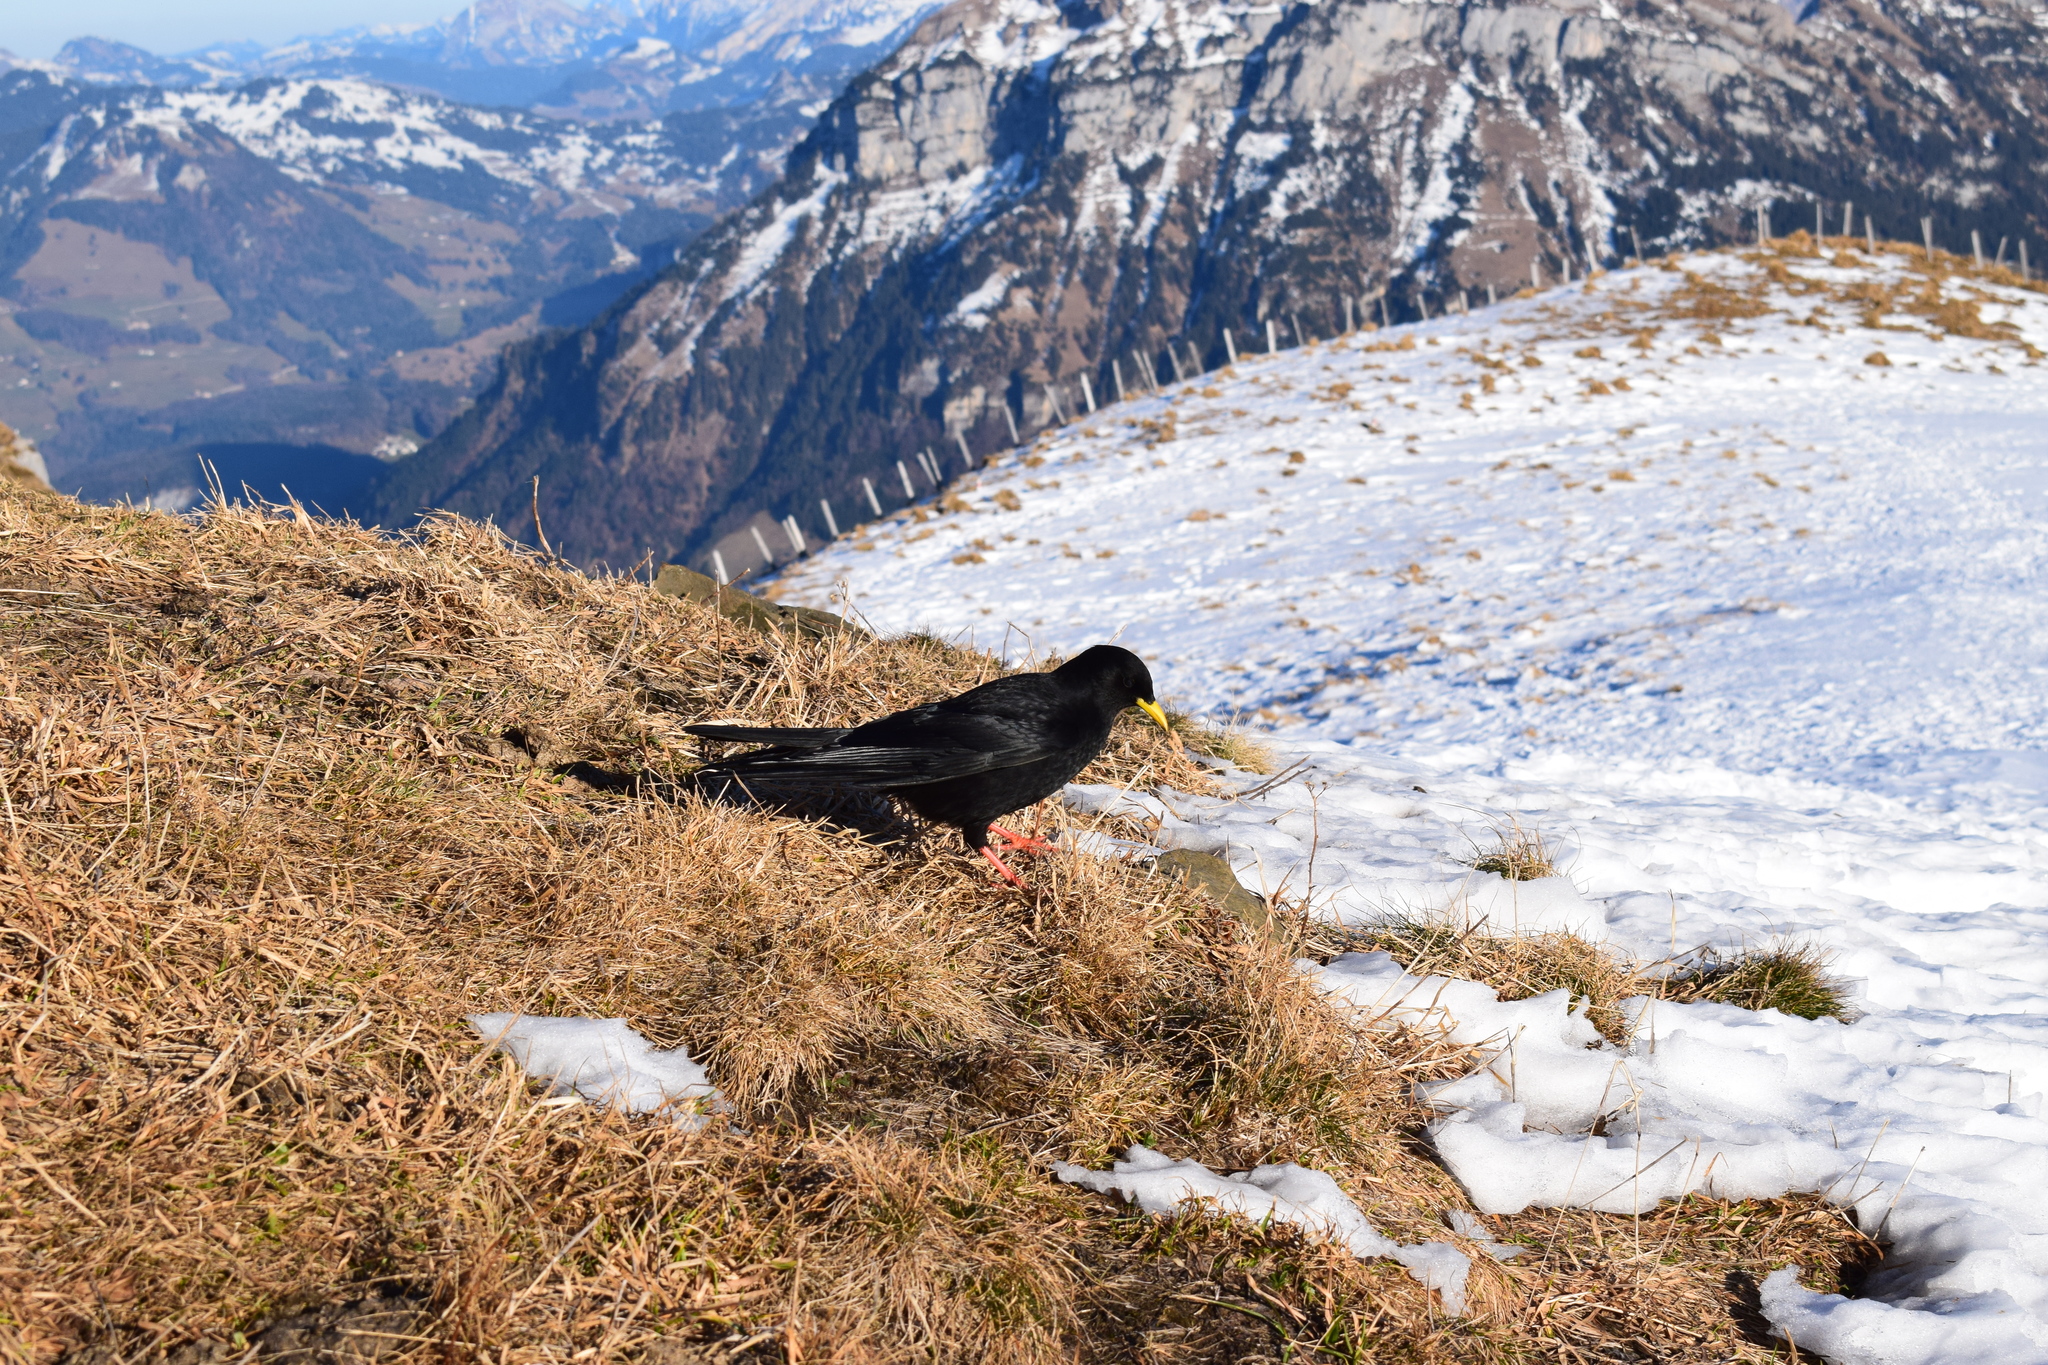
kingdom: Animalia
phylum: Chordata
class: Aves
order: Passeriformes
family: Corvidae
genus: Pyrrhocorax
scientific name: Pyrrhocorax graculus
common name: Alpine chough
